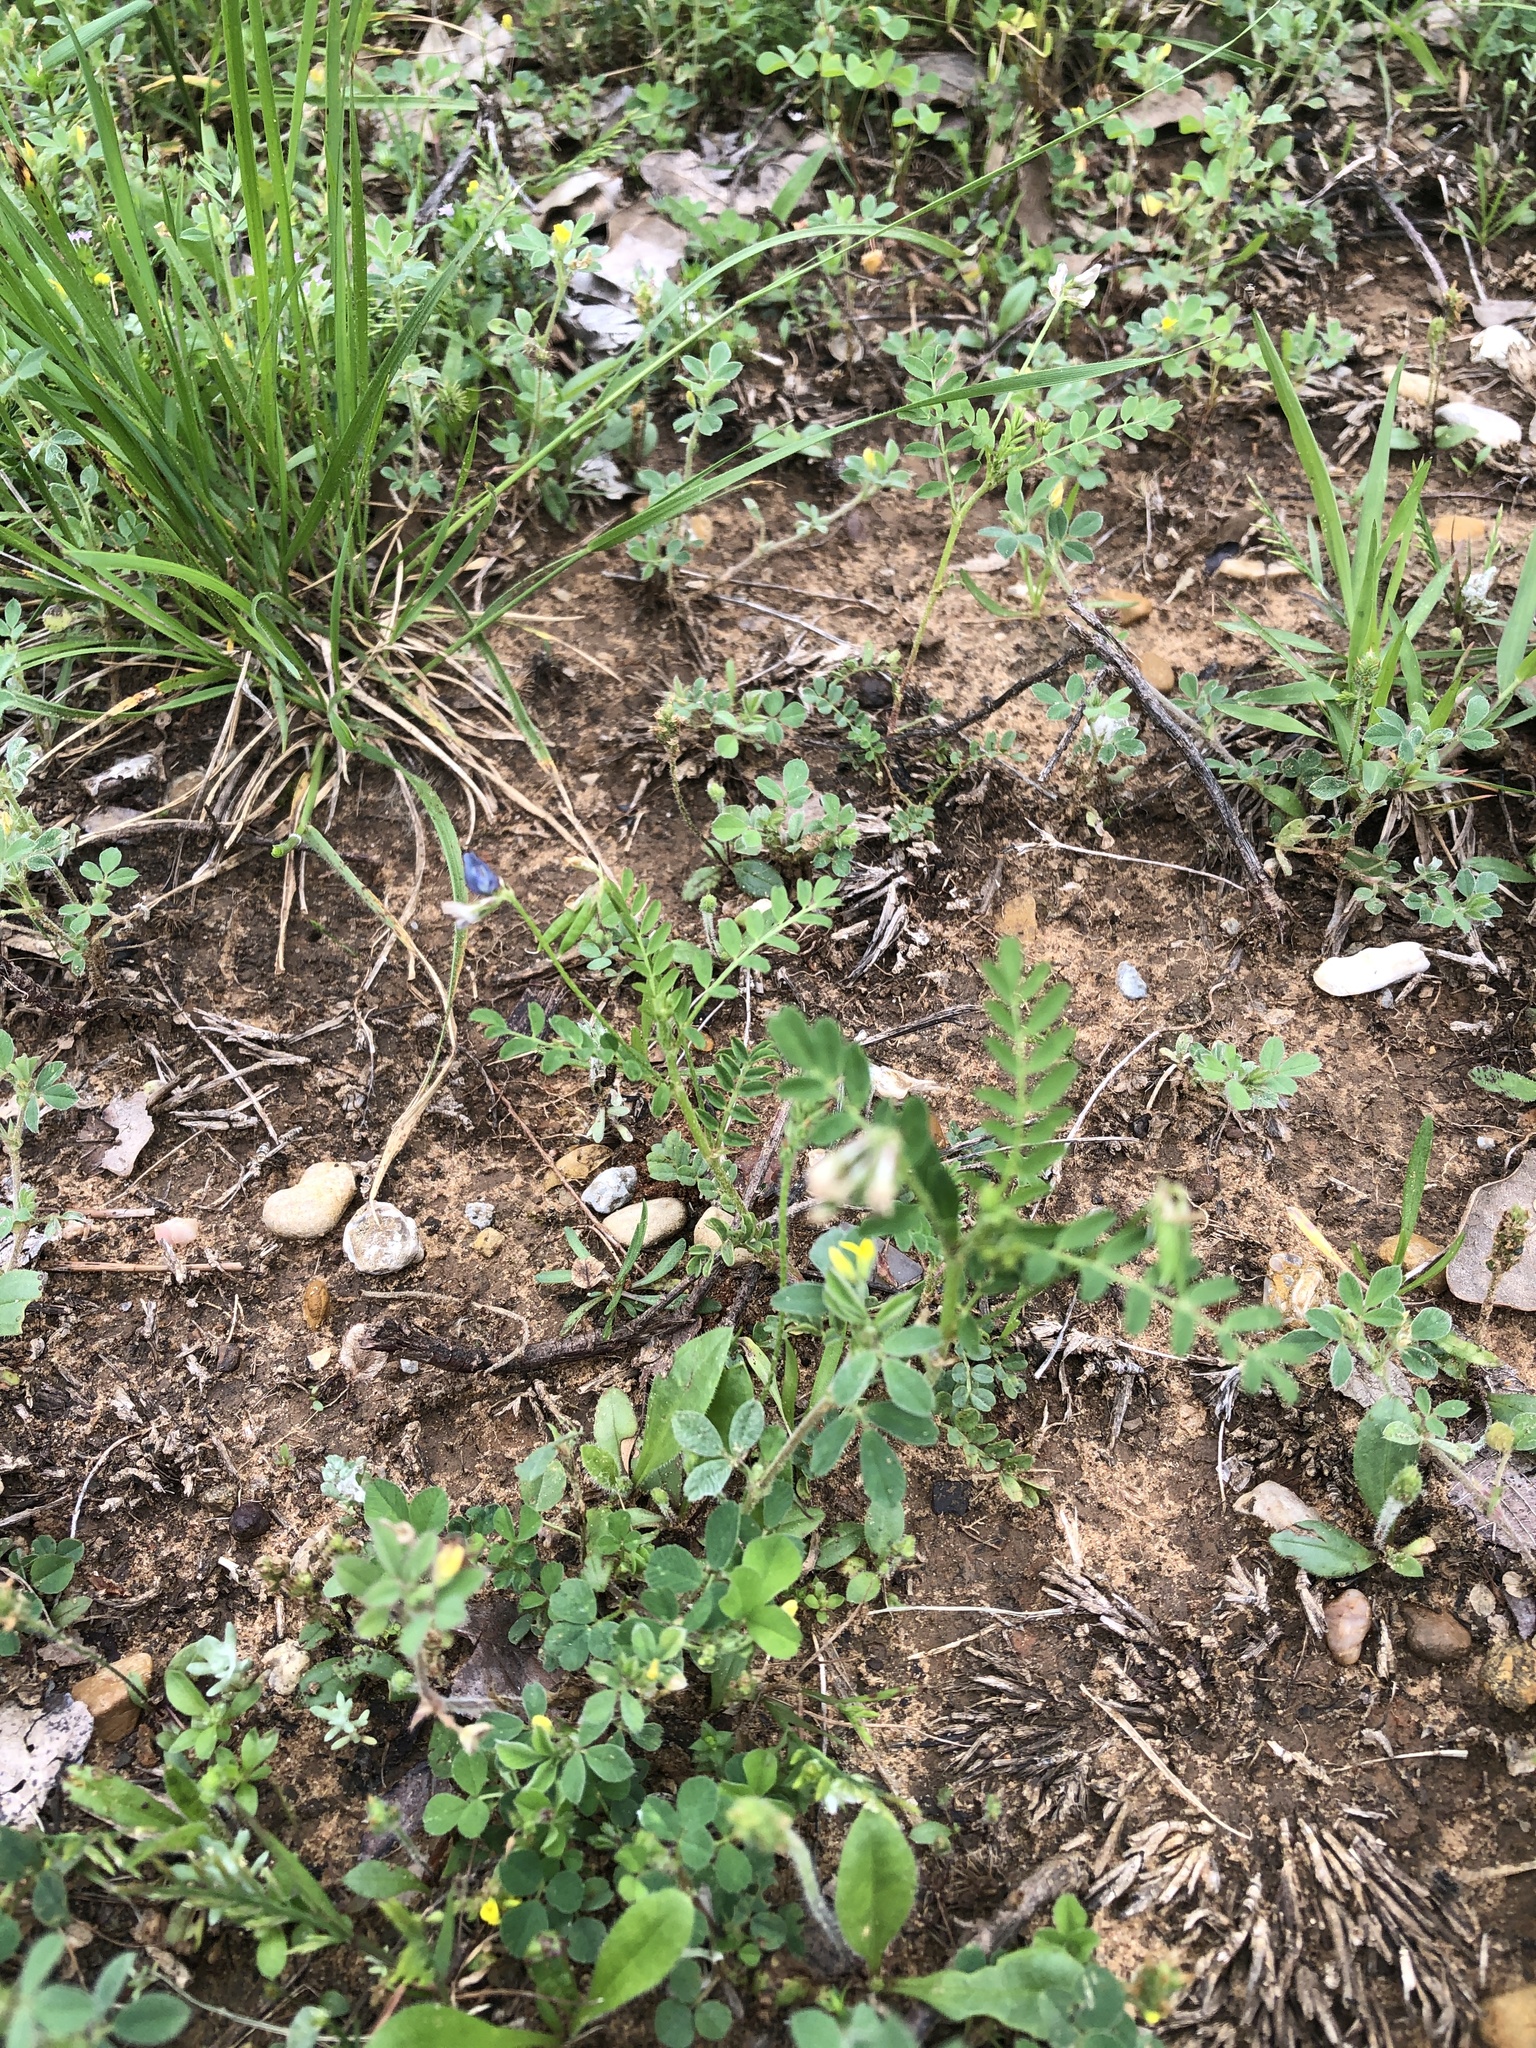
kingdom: Plantae
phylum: Tracheophyta
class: Magnoliopsida
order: Fabales
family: Fabaceae
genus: Astragalus
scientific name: Astragalus nuttallianus
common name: Smallflowered milkvetch
